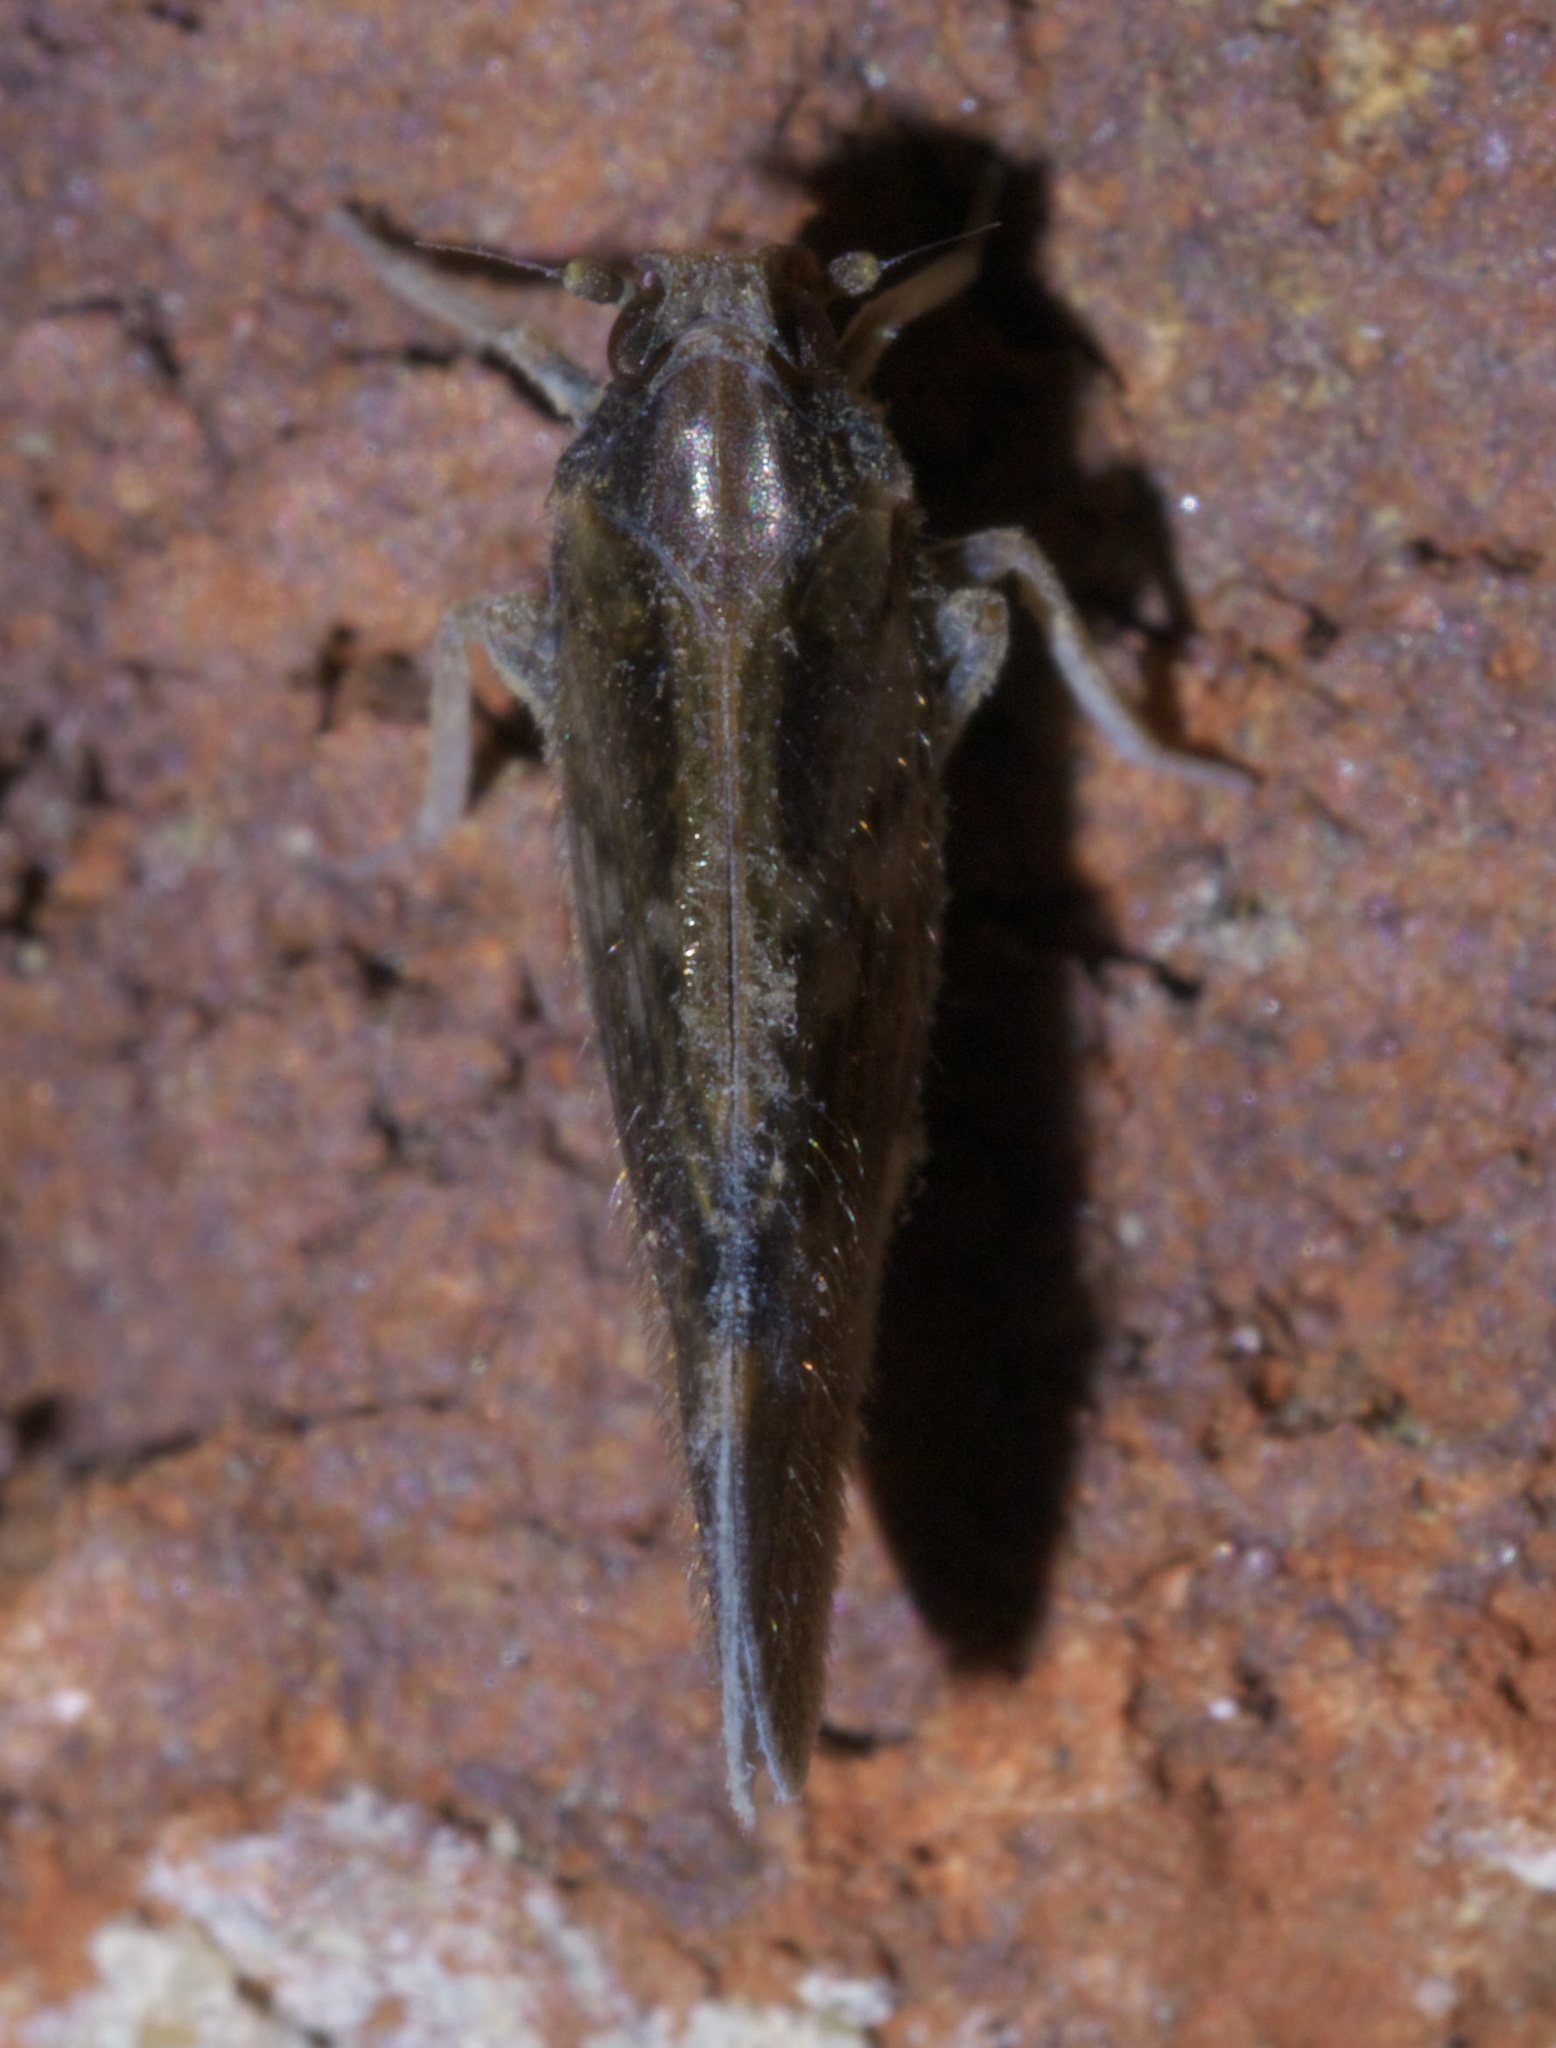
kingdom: Animalia
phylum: Arthropoda
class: Insecta
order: Hemiptera
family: Cixiidae
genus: Pintalia
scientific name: Pintalia vibex
